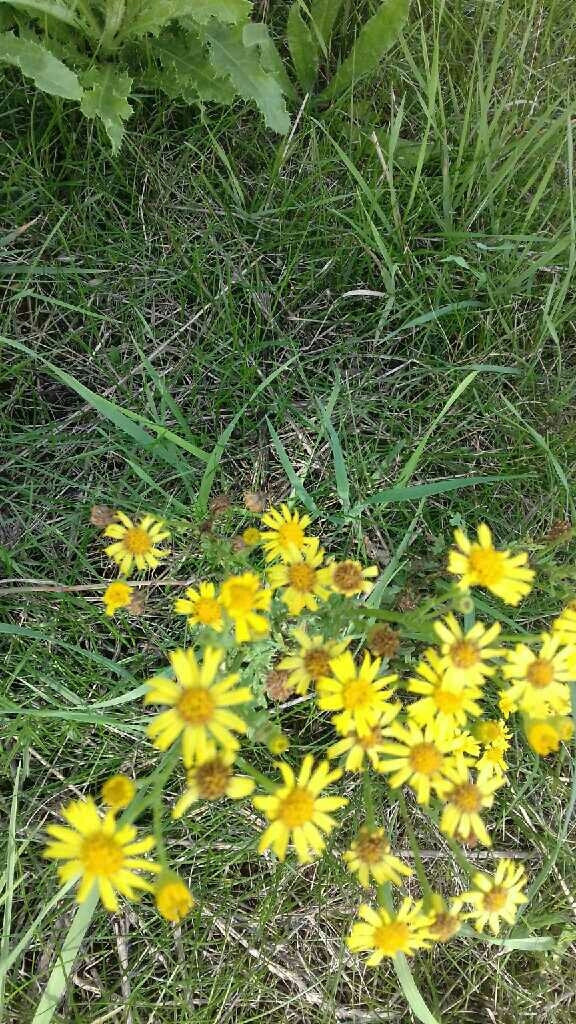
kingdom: Plantae
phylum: Tracheophyta
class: Magnoliopsida
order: Asterales
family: Asteraceae
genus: Jacobaea
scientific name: Jacobaea vulgaris
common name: Stinking willie
